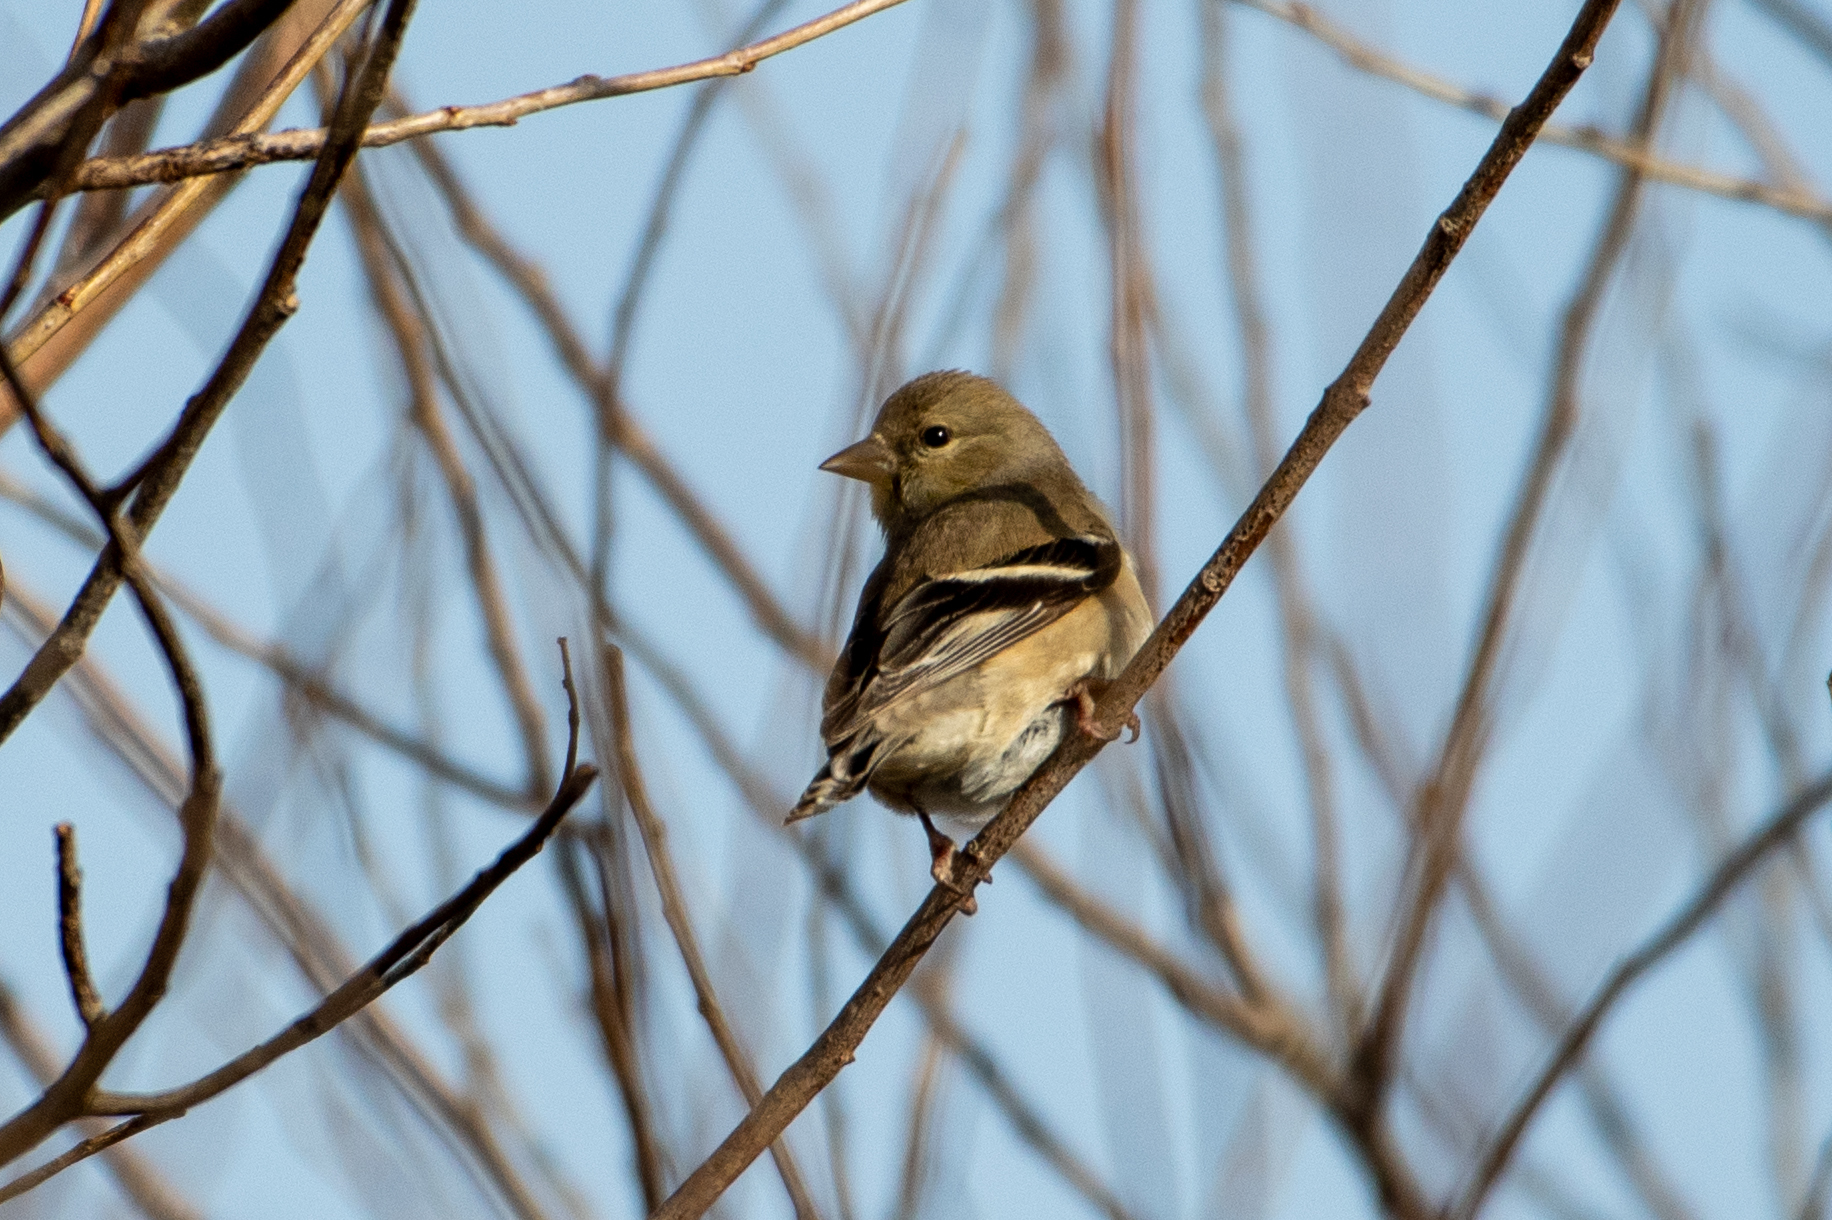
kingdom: Animalia
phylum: Chordata
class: Aves
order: Passeriformes
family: Fringillidae
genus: Spinus
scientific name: Spinus tristis
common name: American goldfinch
